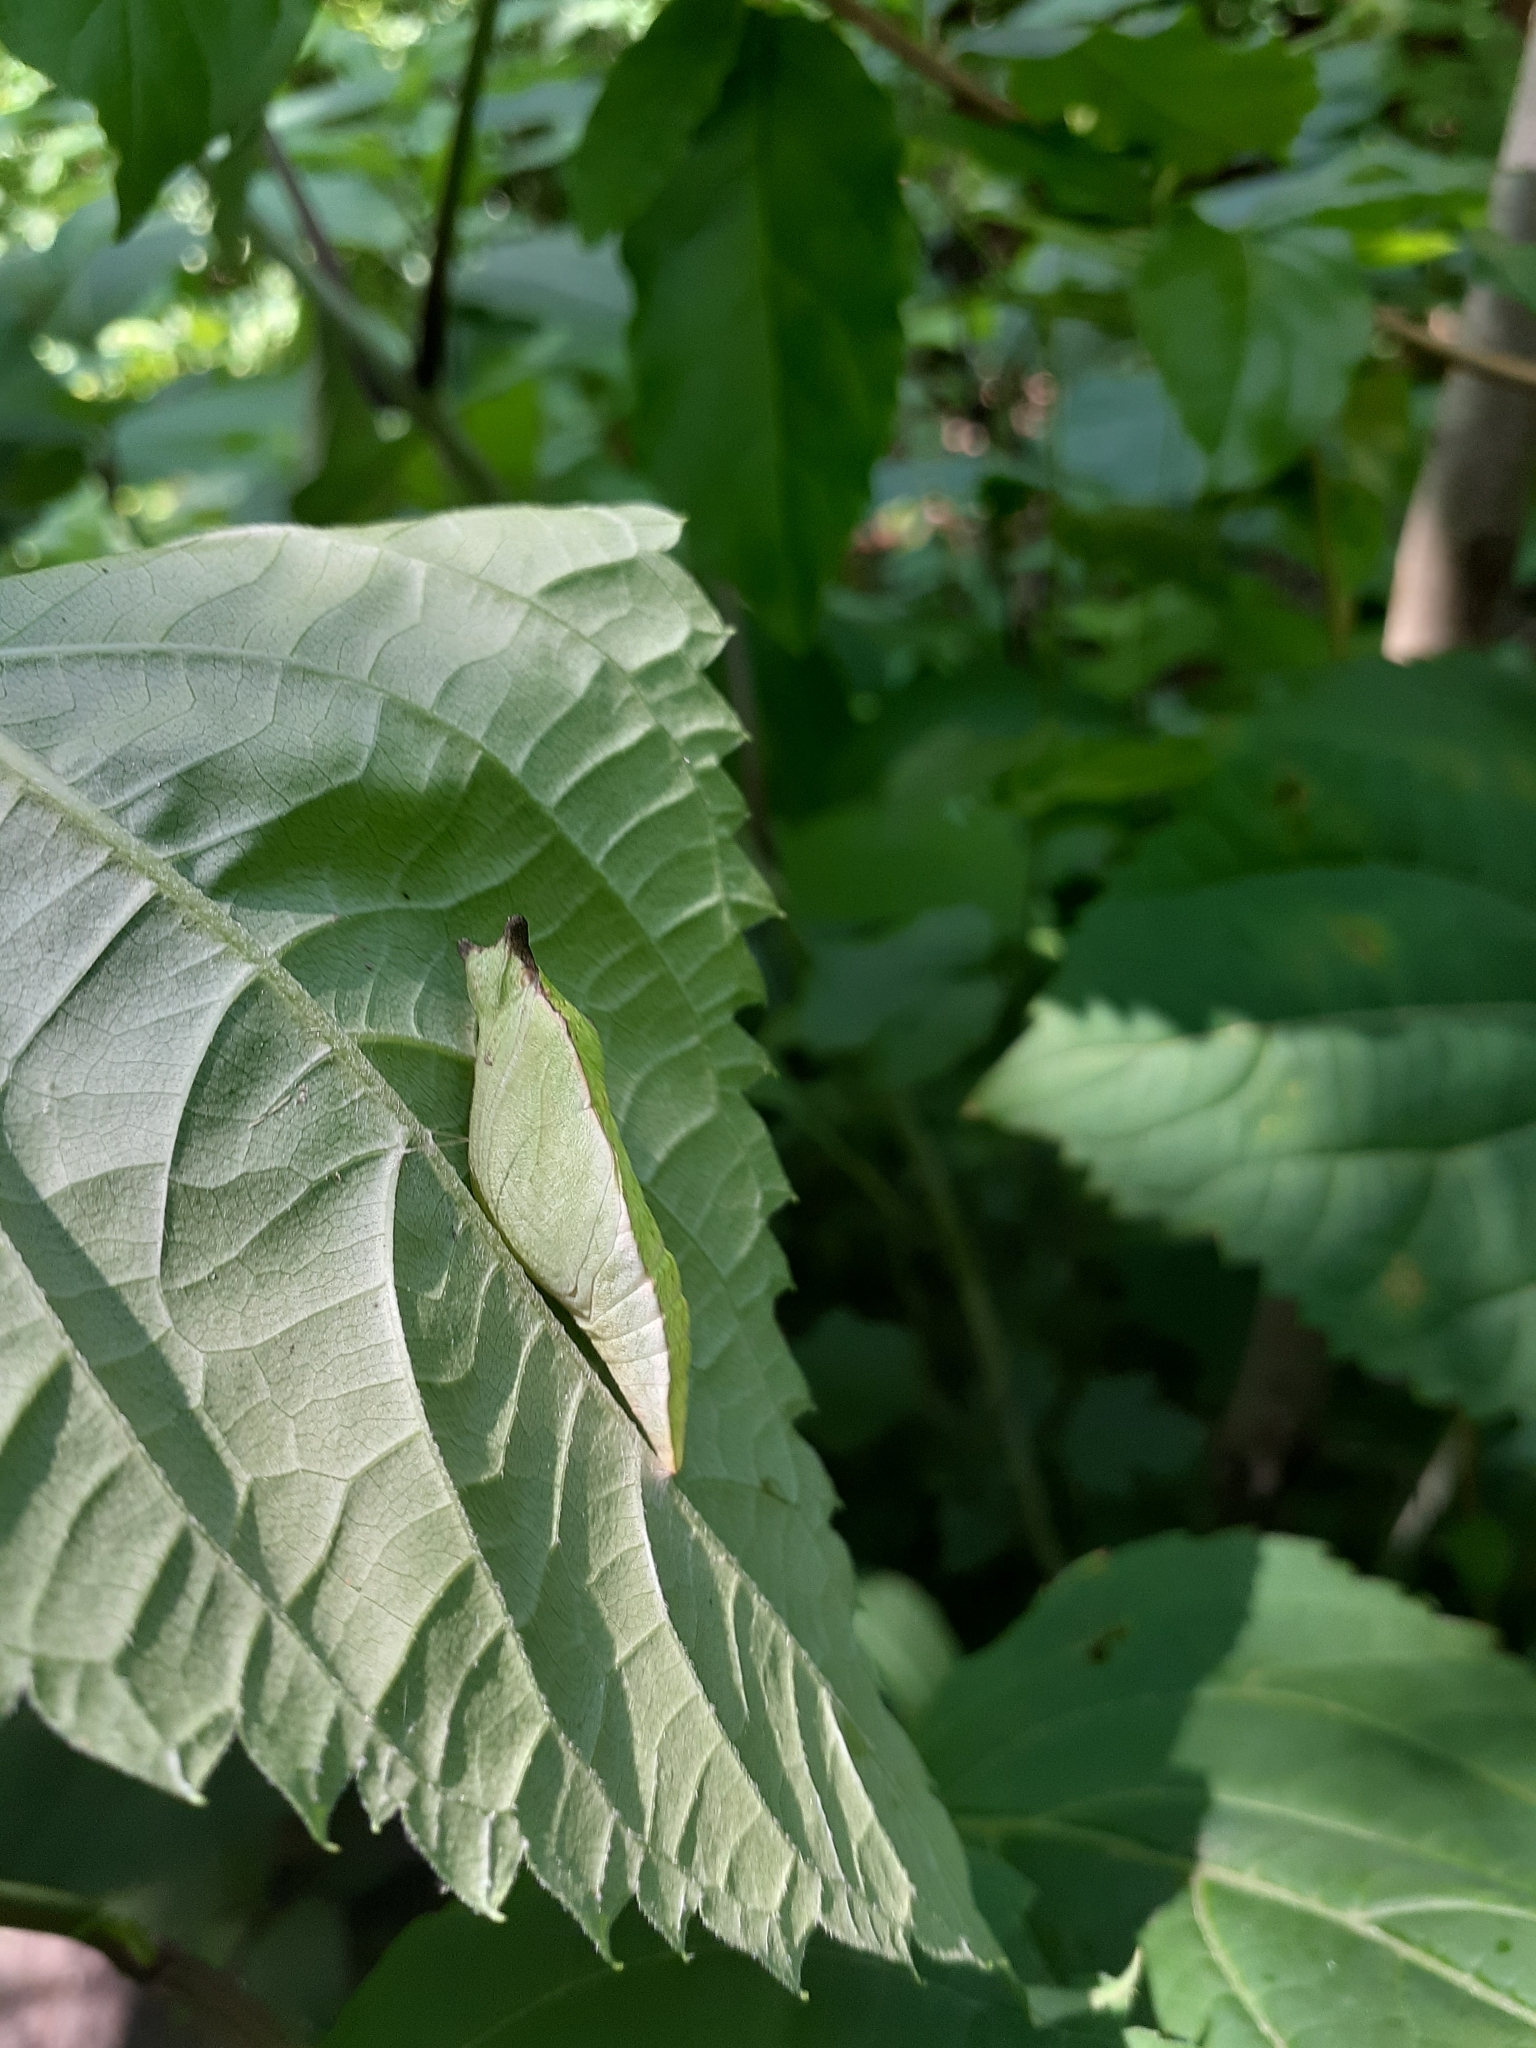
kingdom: Animalia
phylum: Arthropoda
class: Insecta
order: Lepidoptera
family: Papilionidae
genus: Papilio
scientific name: Papilio troilus
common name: Spicebush swallowtail
